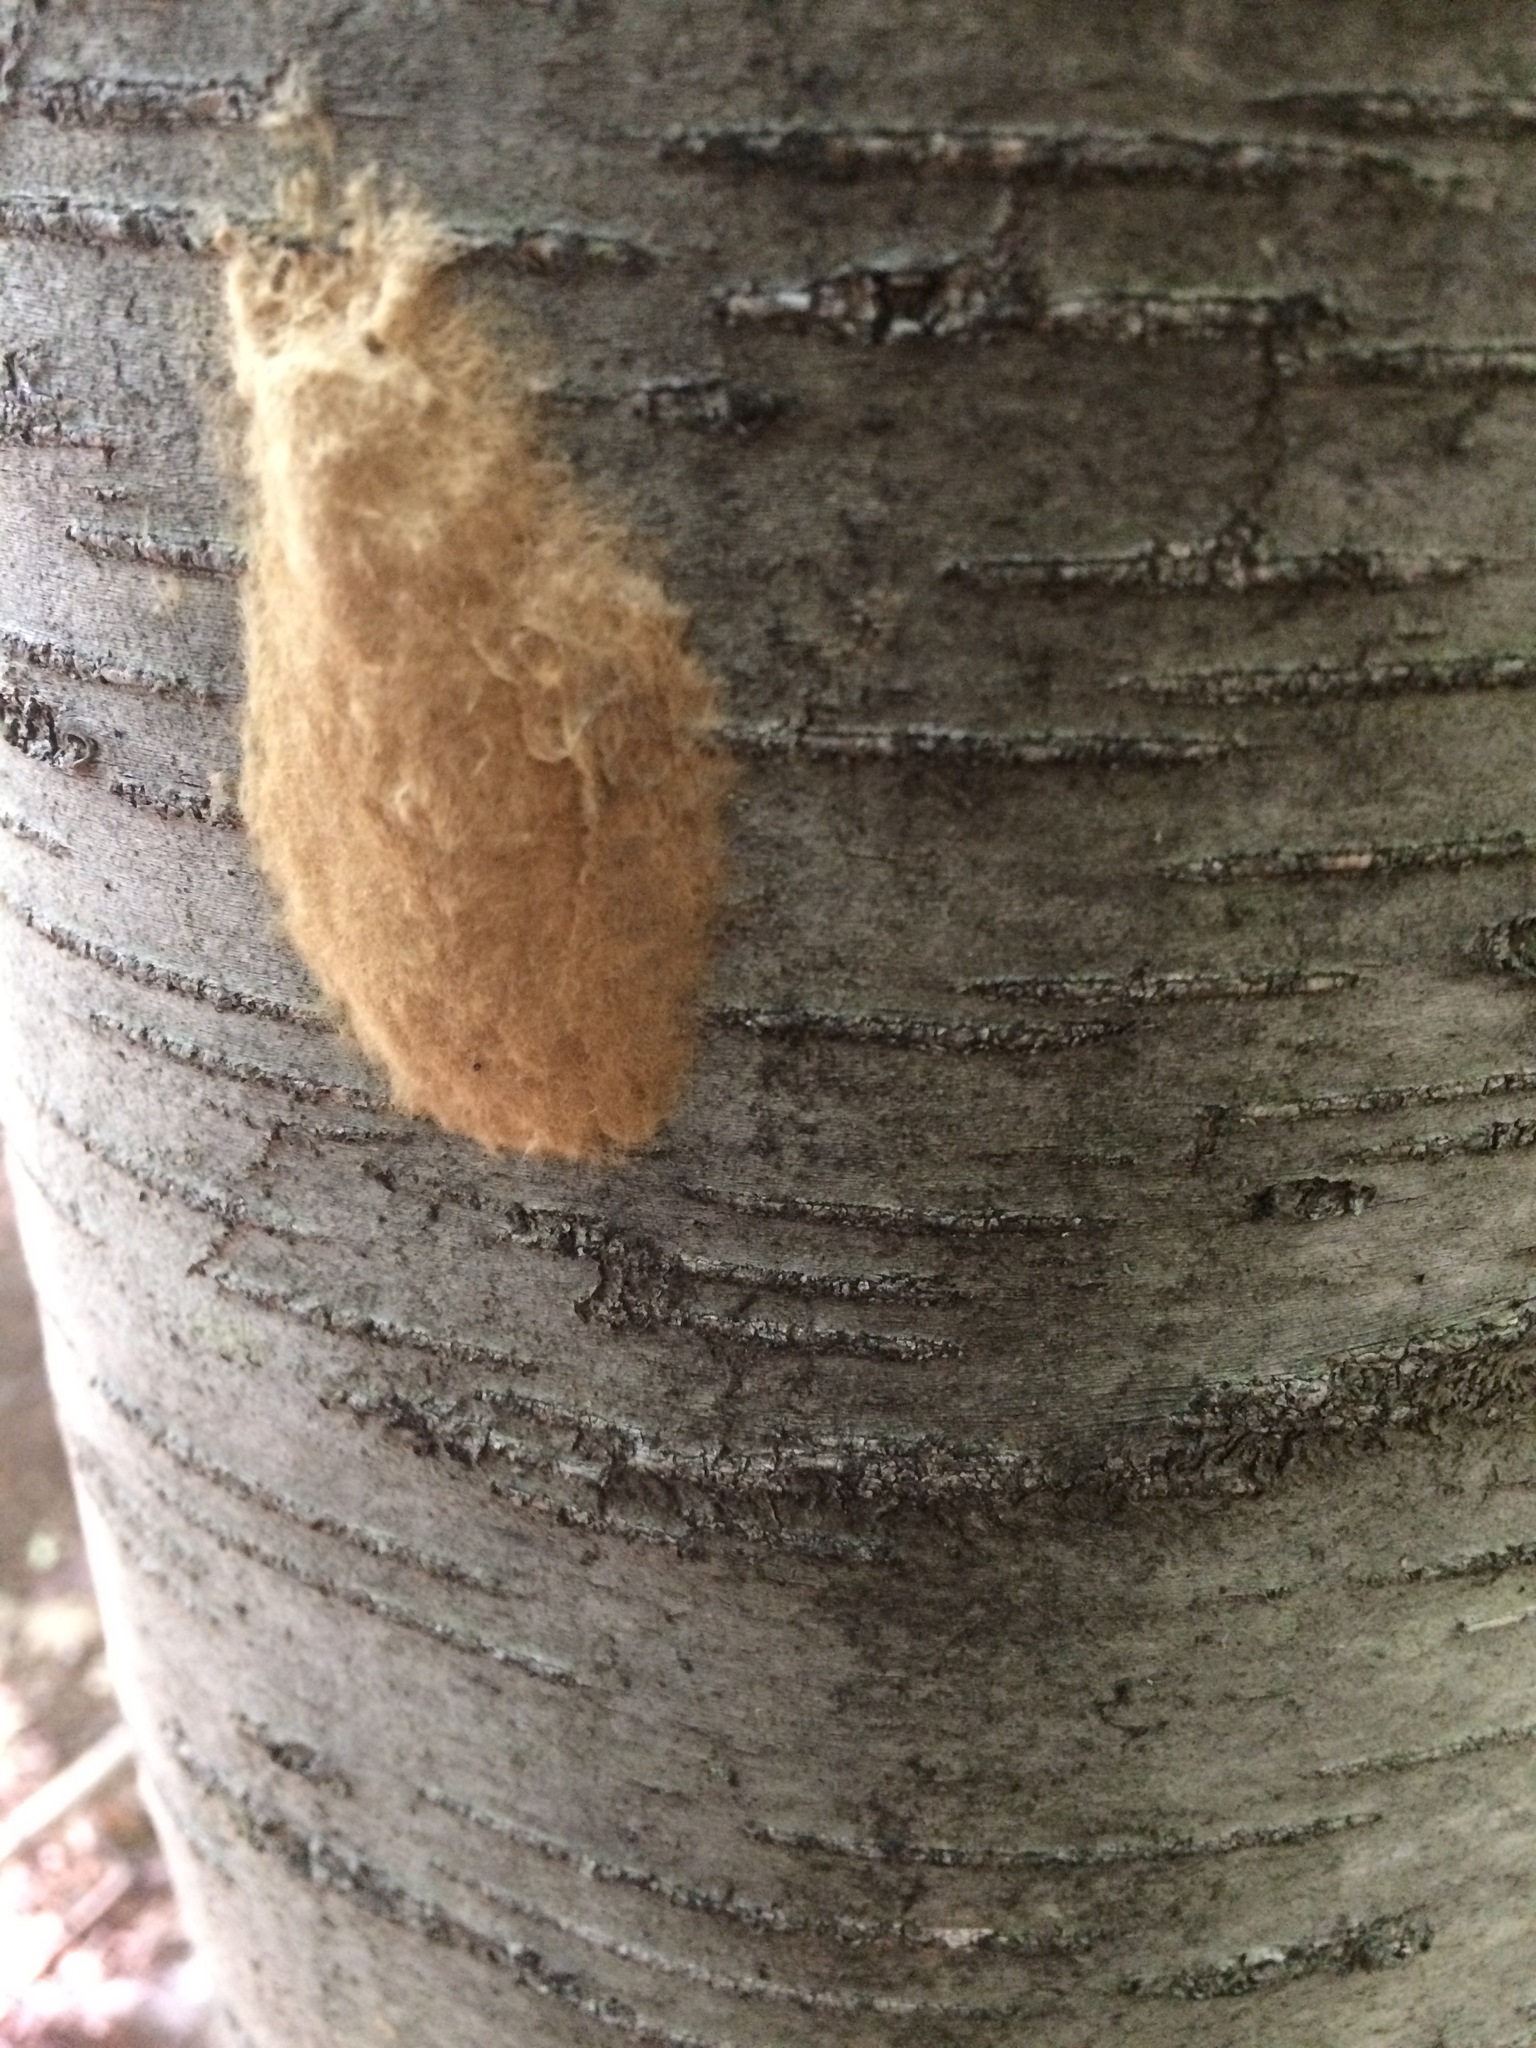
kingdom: Animalia
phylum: Arthropoda
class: Insecta
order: Lepidoptera
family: Erebidae
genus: Lymantria
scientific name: Lymantria dispar
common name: Gypsy moth
